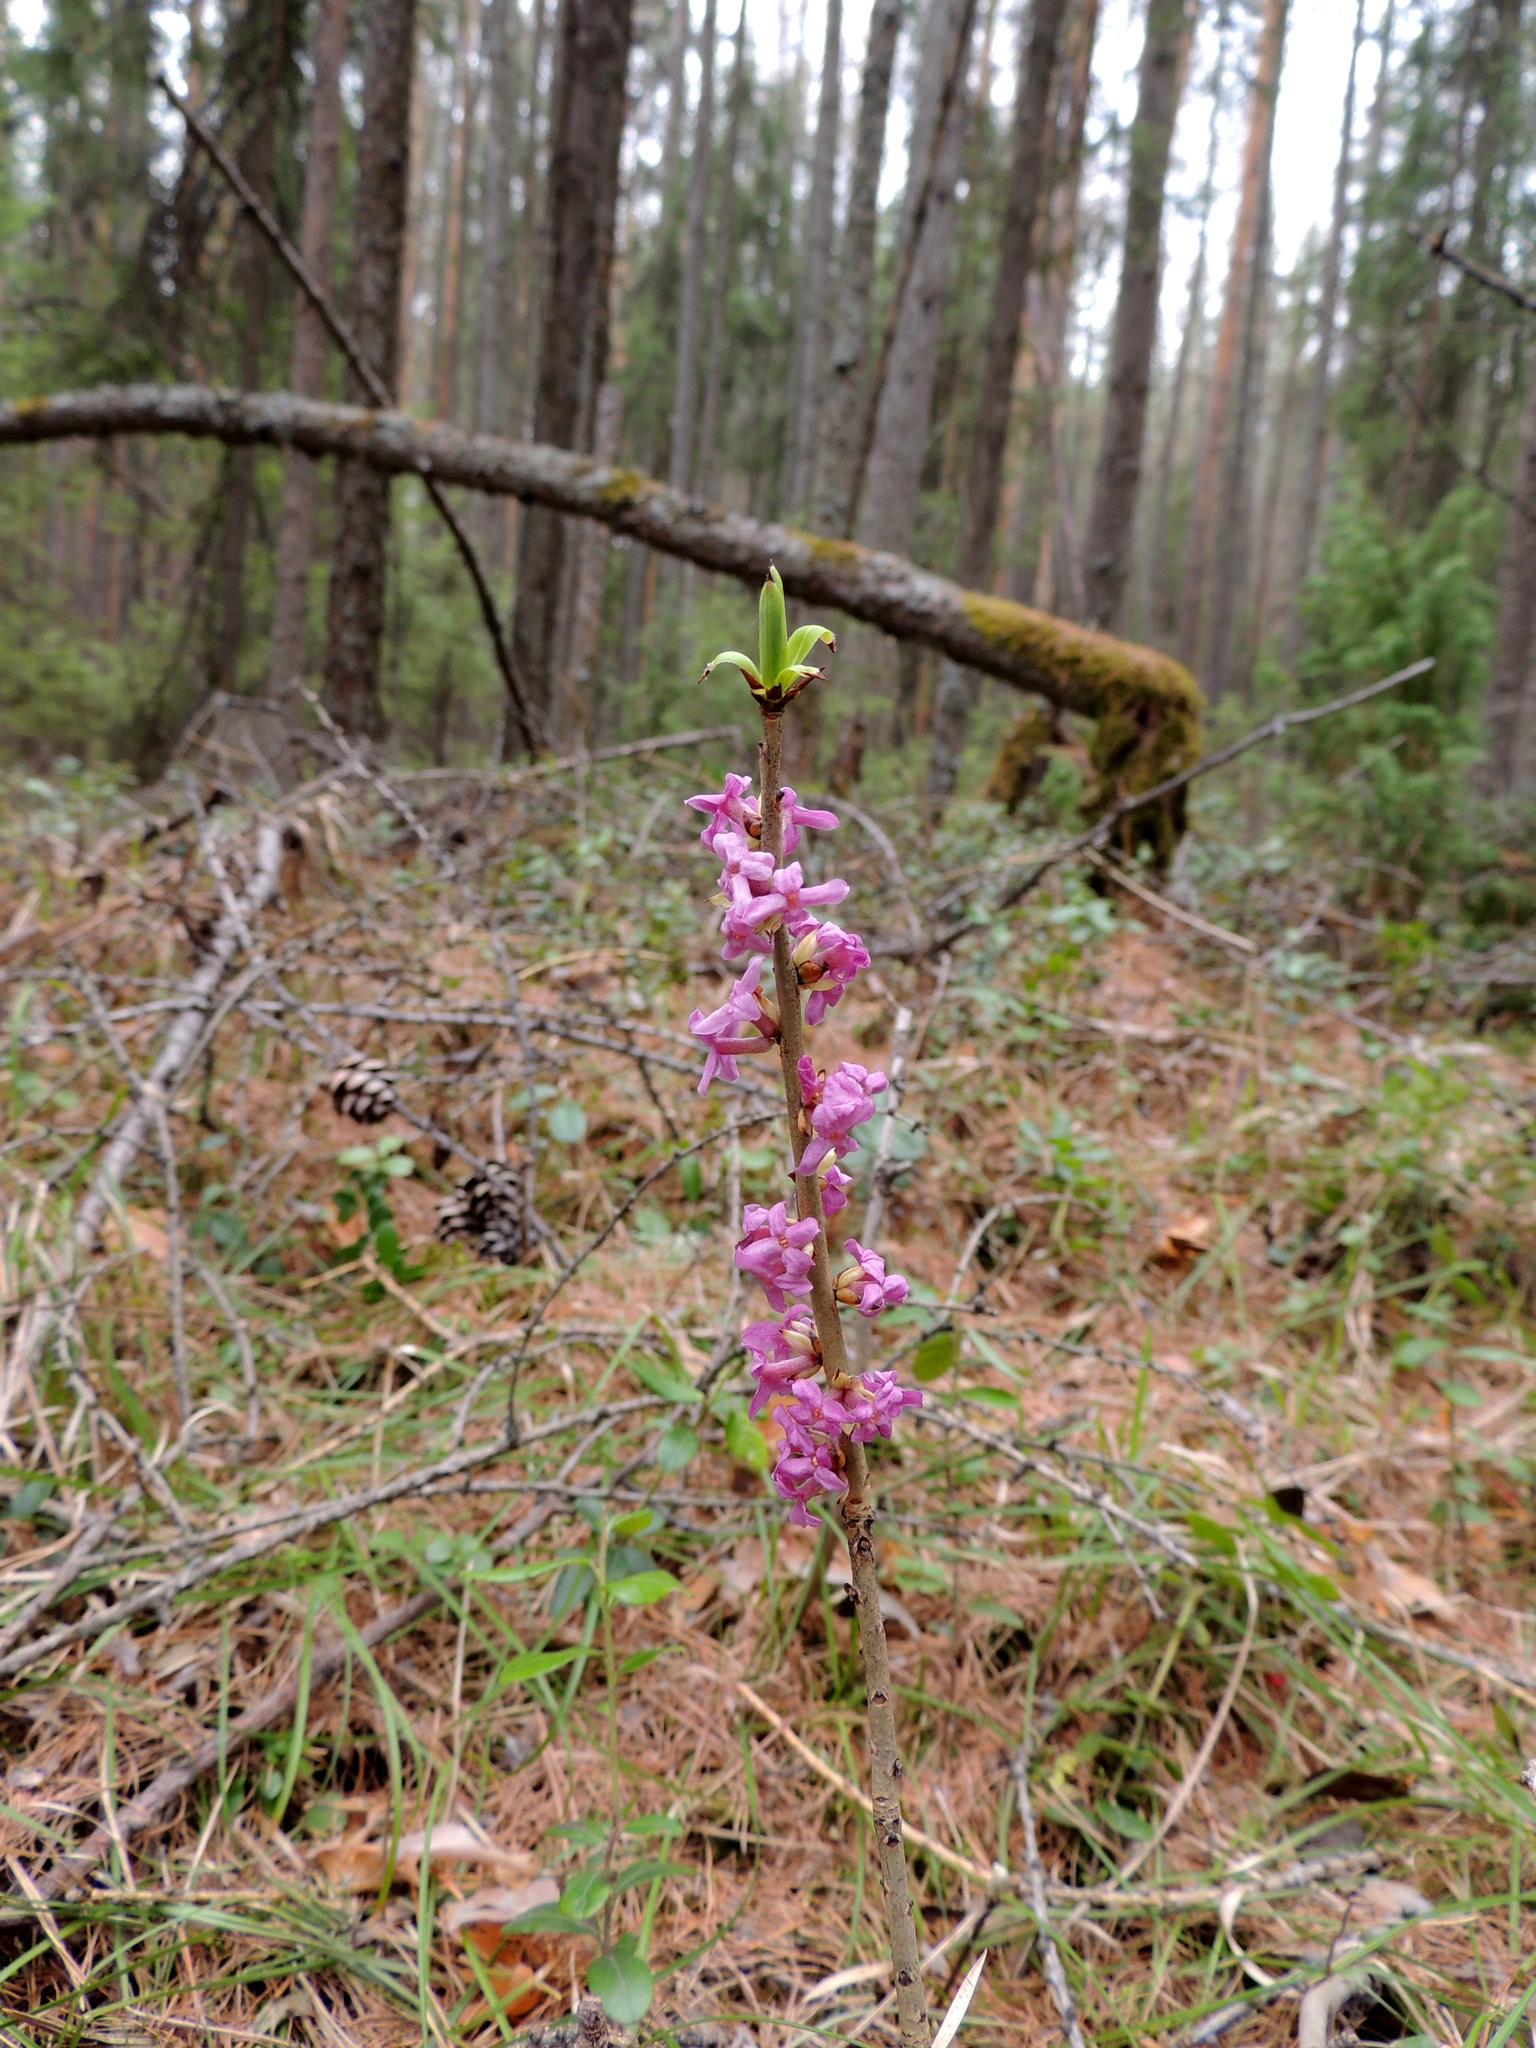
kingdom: Plantae
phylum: Tracheophyta
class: Magnoliopsida
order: Malvales
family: Thymelaeaceae
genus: Daphne
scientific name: Daphne mezereum
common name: Mezereon
